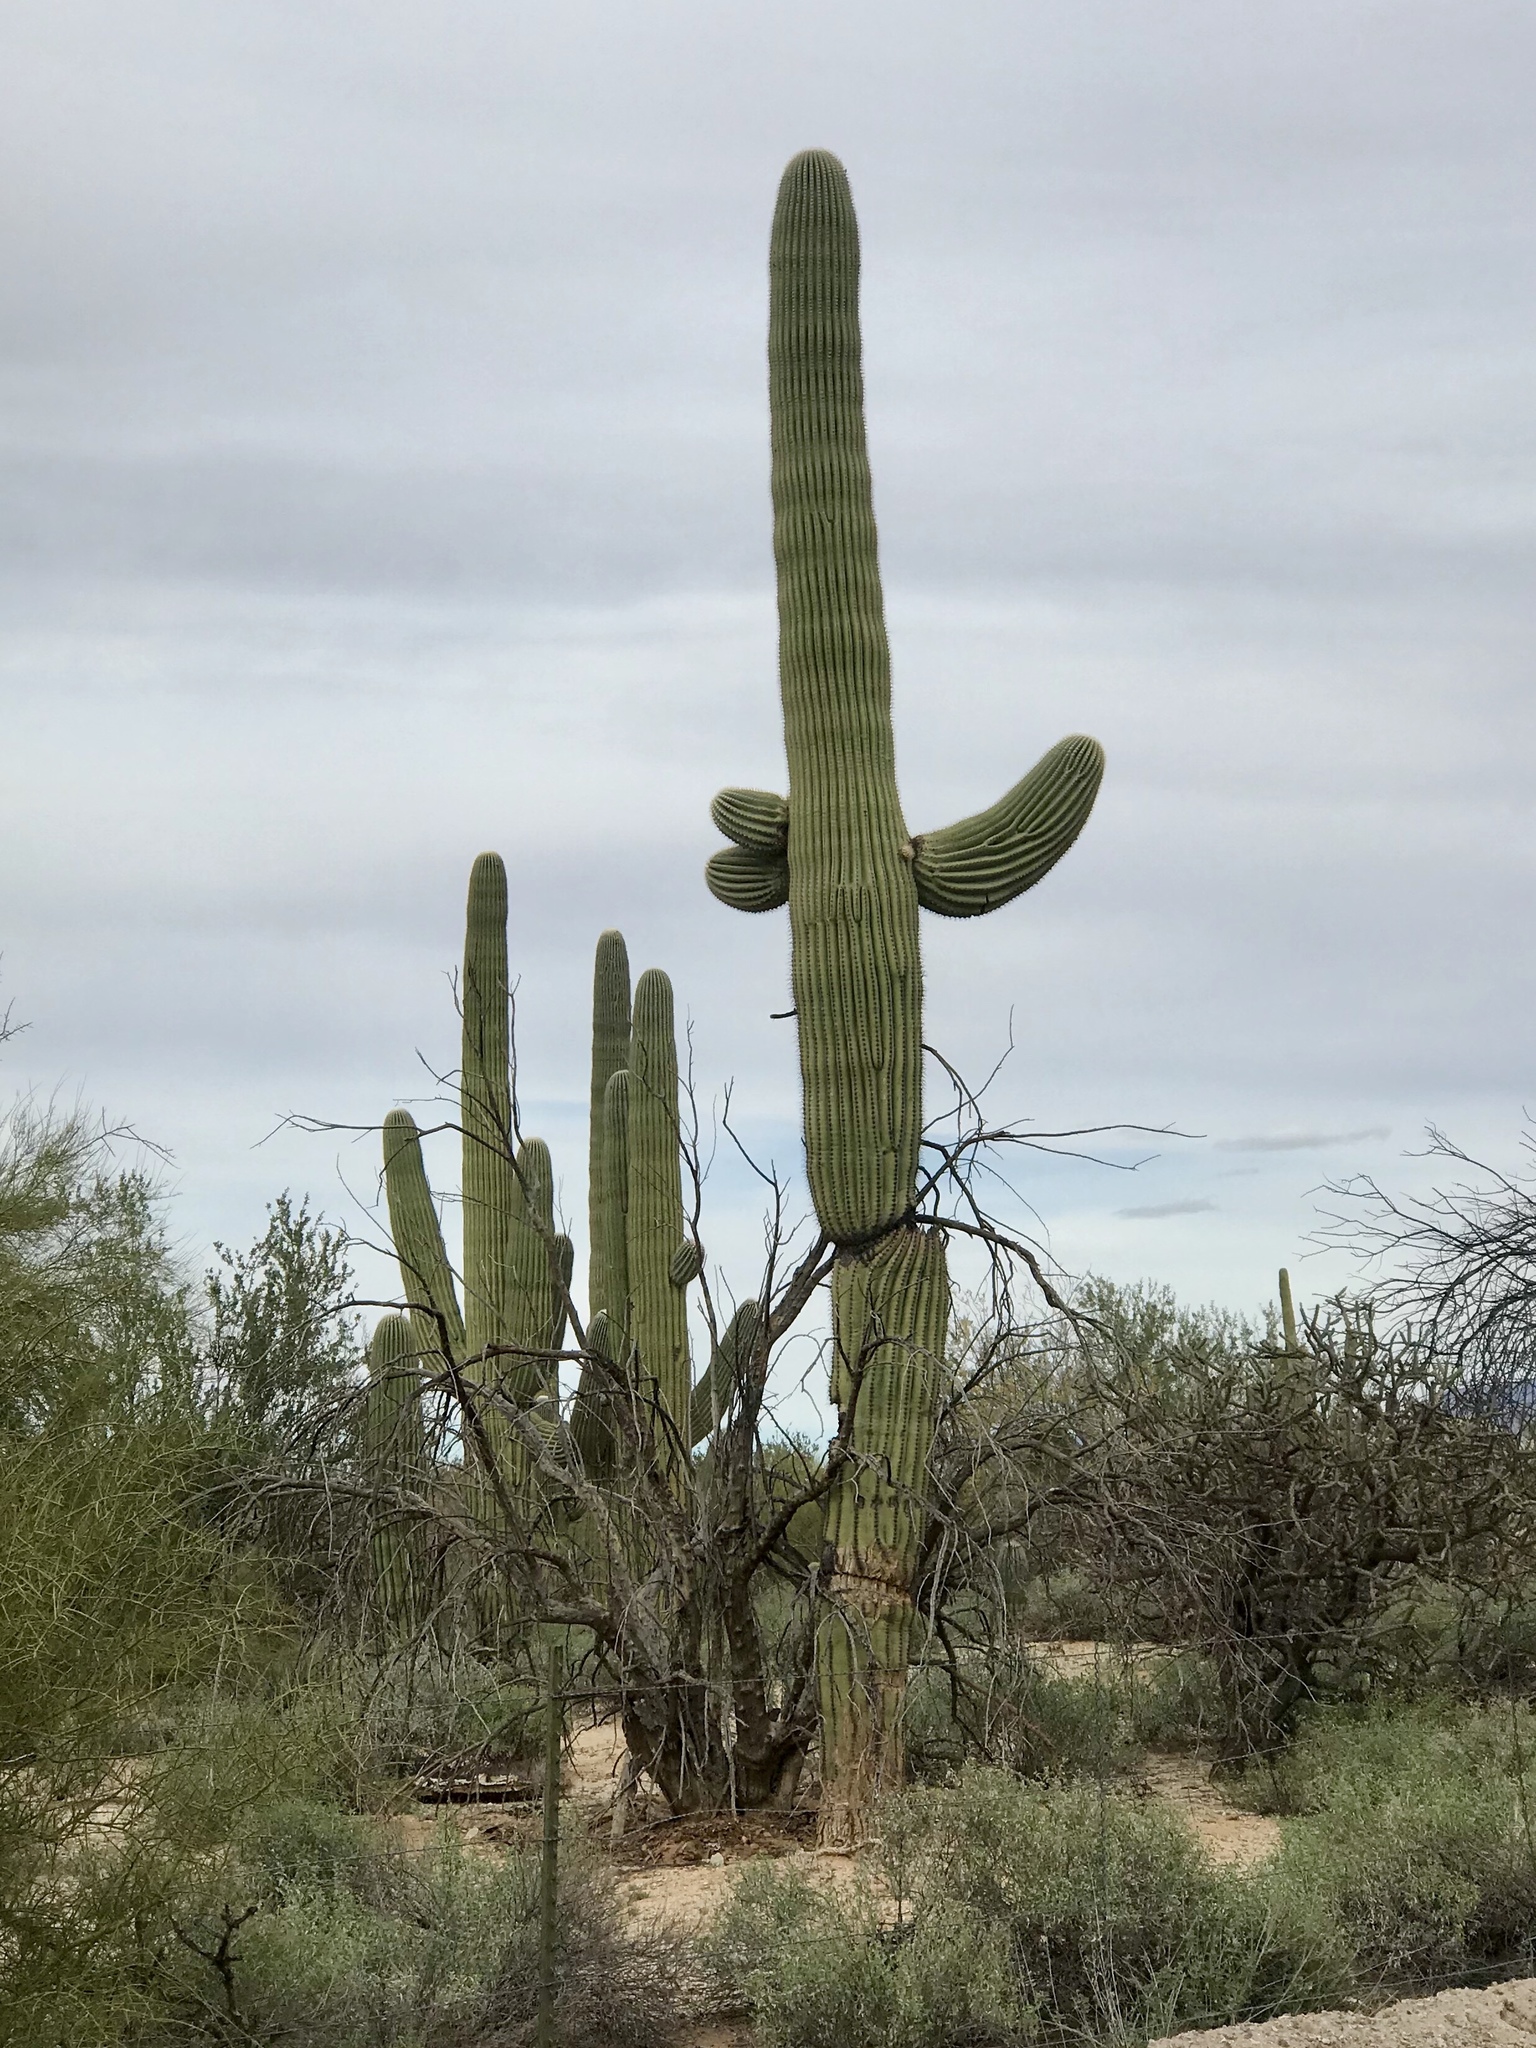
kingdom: Plantae
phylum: Tracheophyta
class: Magnoliopsida
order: Caryophyllales
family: Cactaceae
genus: Carnegiea
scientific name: Carnegiea gigantea
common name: Saguaro
